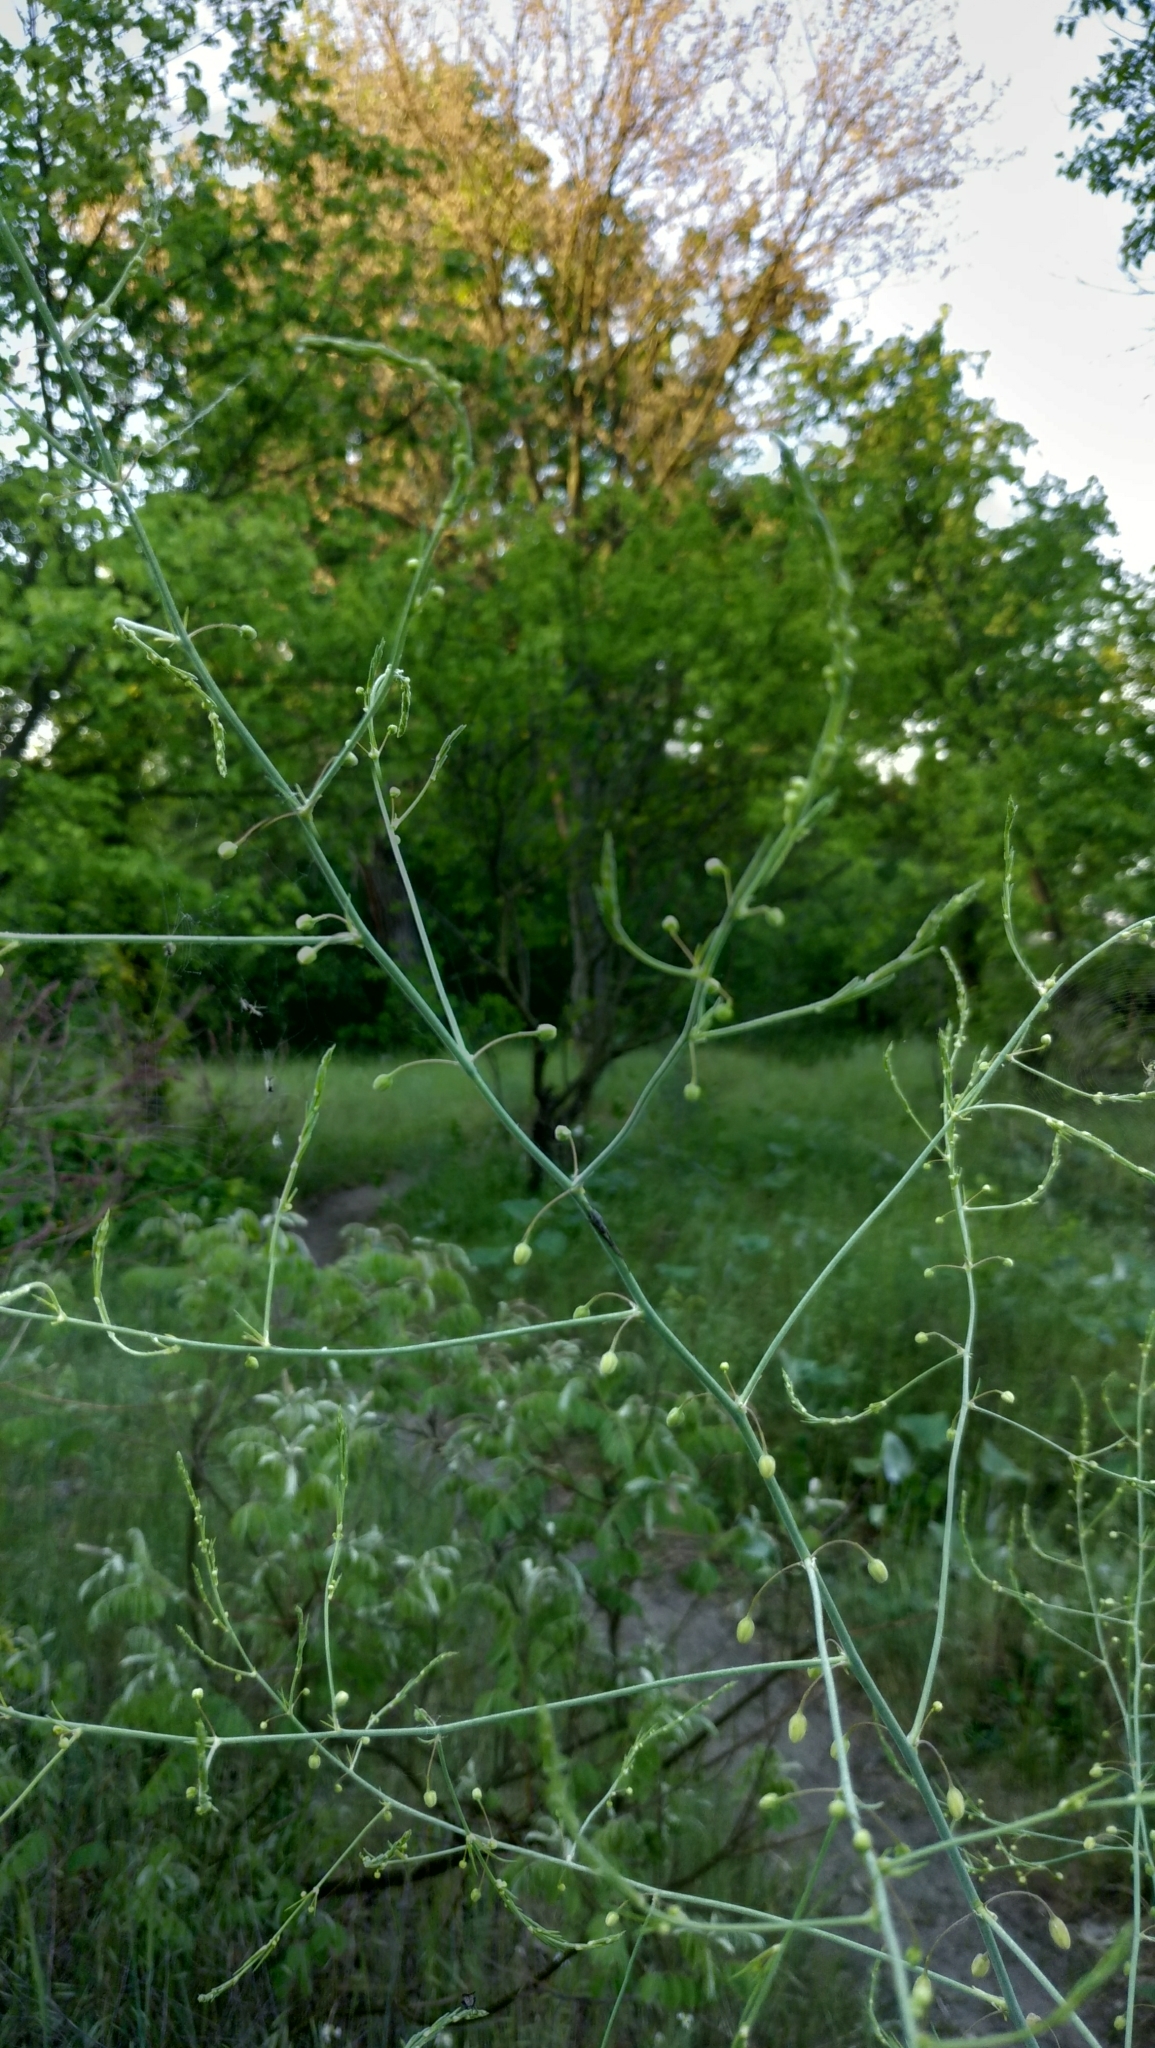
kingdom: Plantae
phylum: Tracheophyta
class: Liliopsida
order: Asparagales
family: Asparagaceae
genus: Asparagus
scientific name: Asparagus officinalis
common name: Garden asparagus
